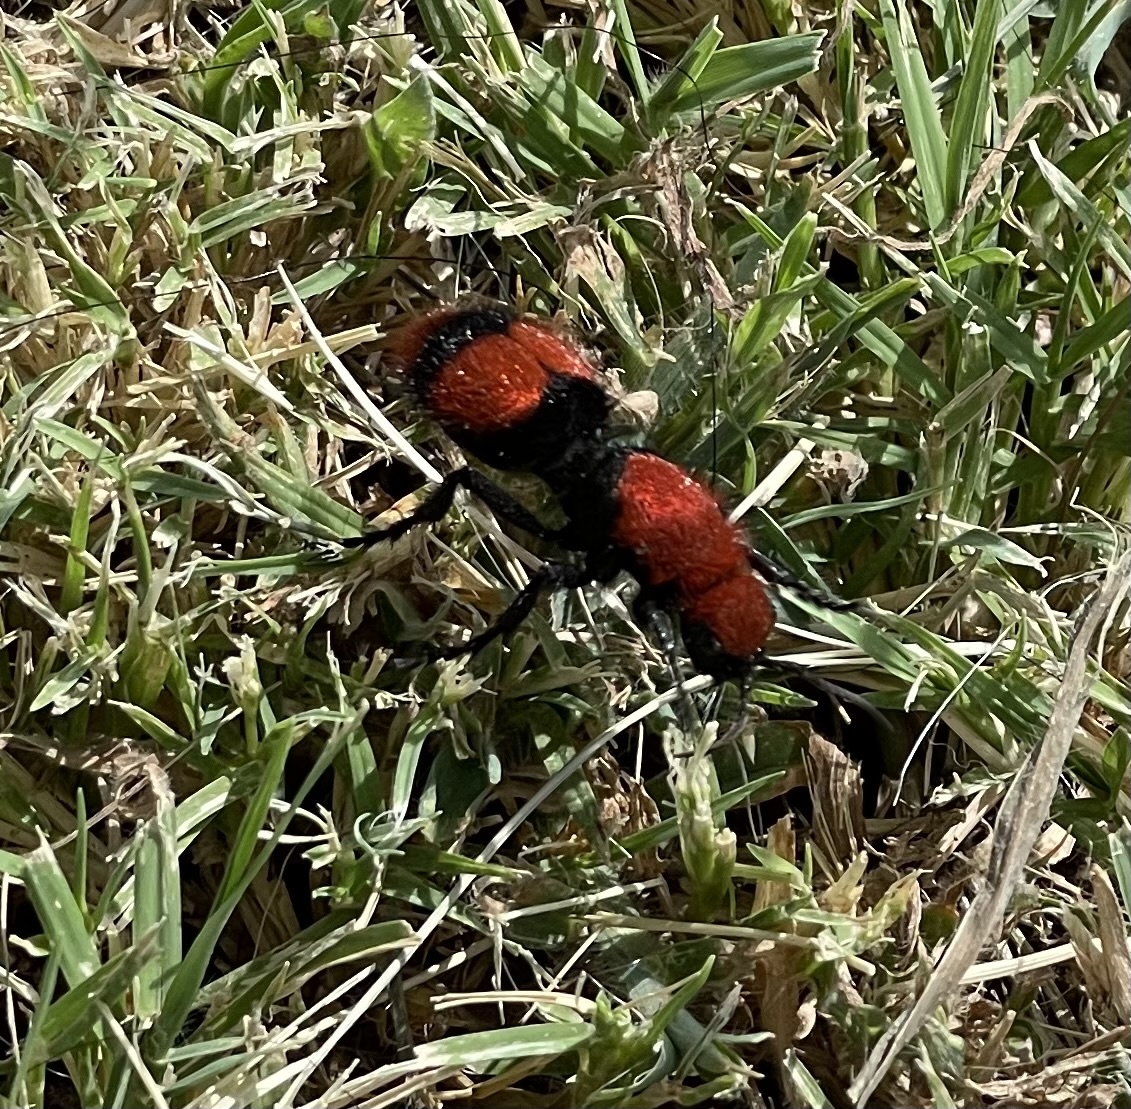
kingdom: Animalia
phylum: Arthropoda
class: Insecta
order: Hymenoptera
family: Mutillidae
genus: Dasymutilla
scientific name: Dasymutilla occidentalis
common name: Common eastern velvet ant
